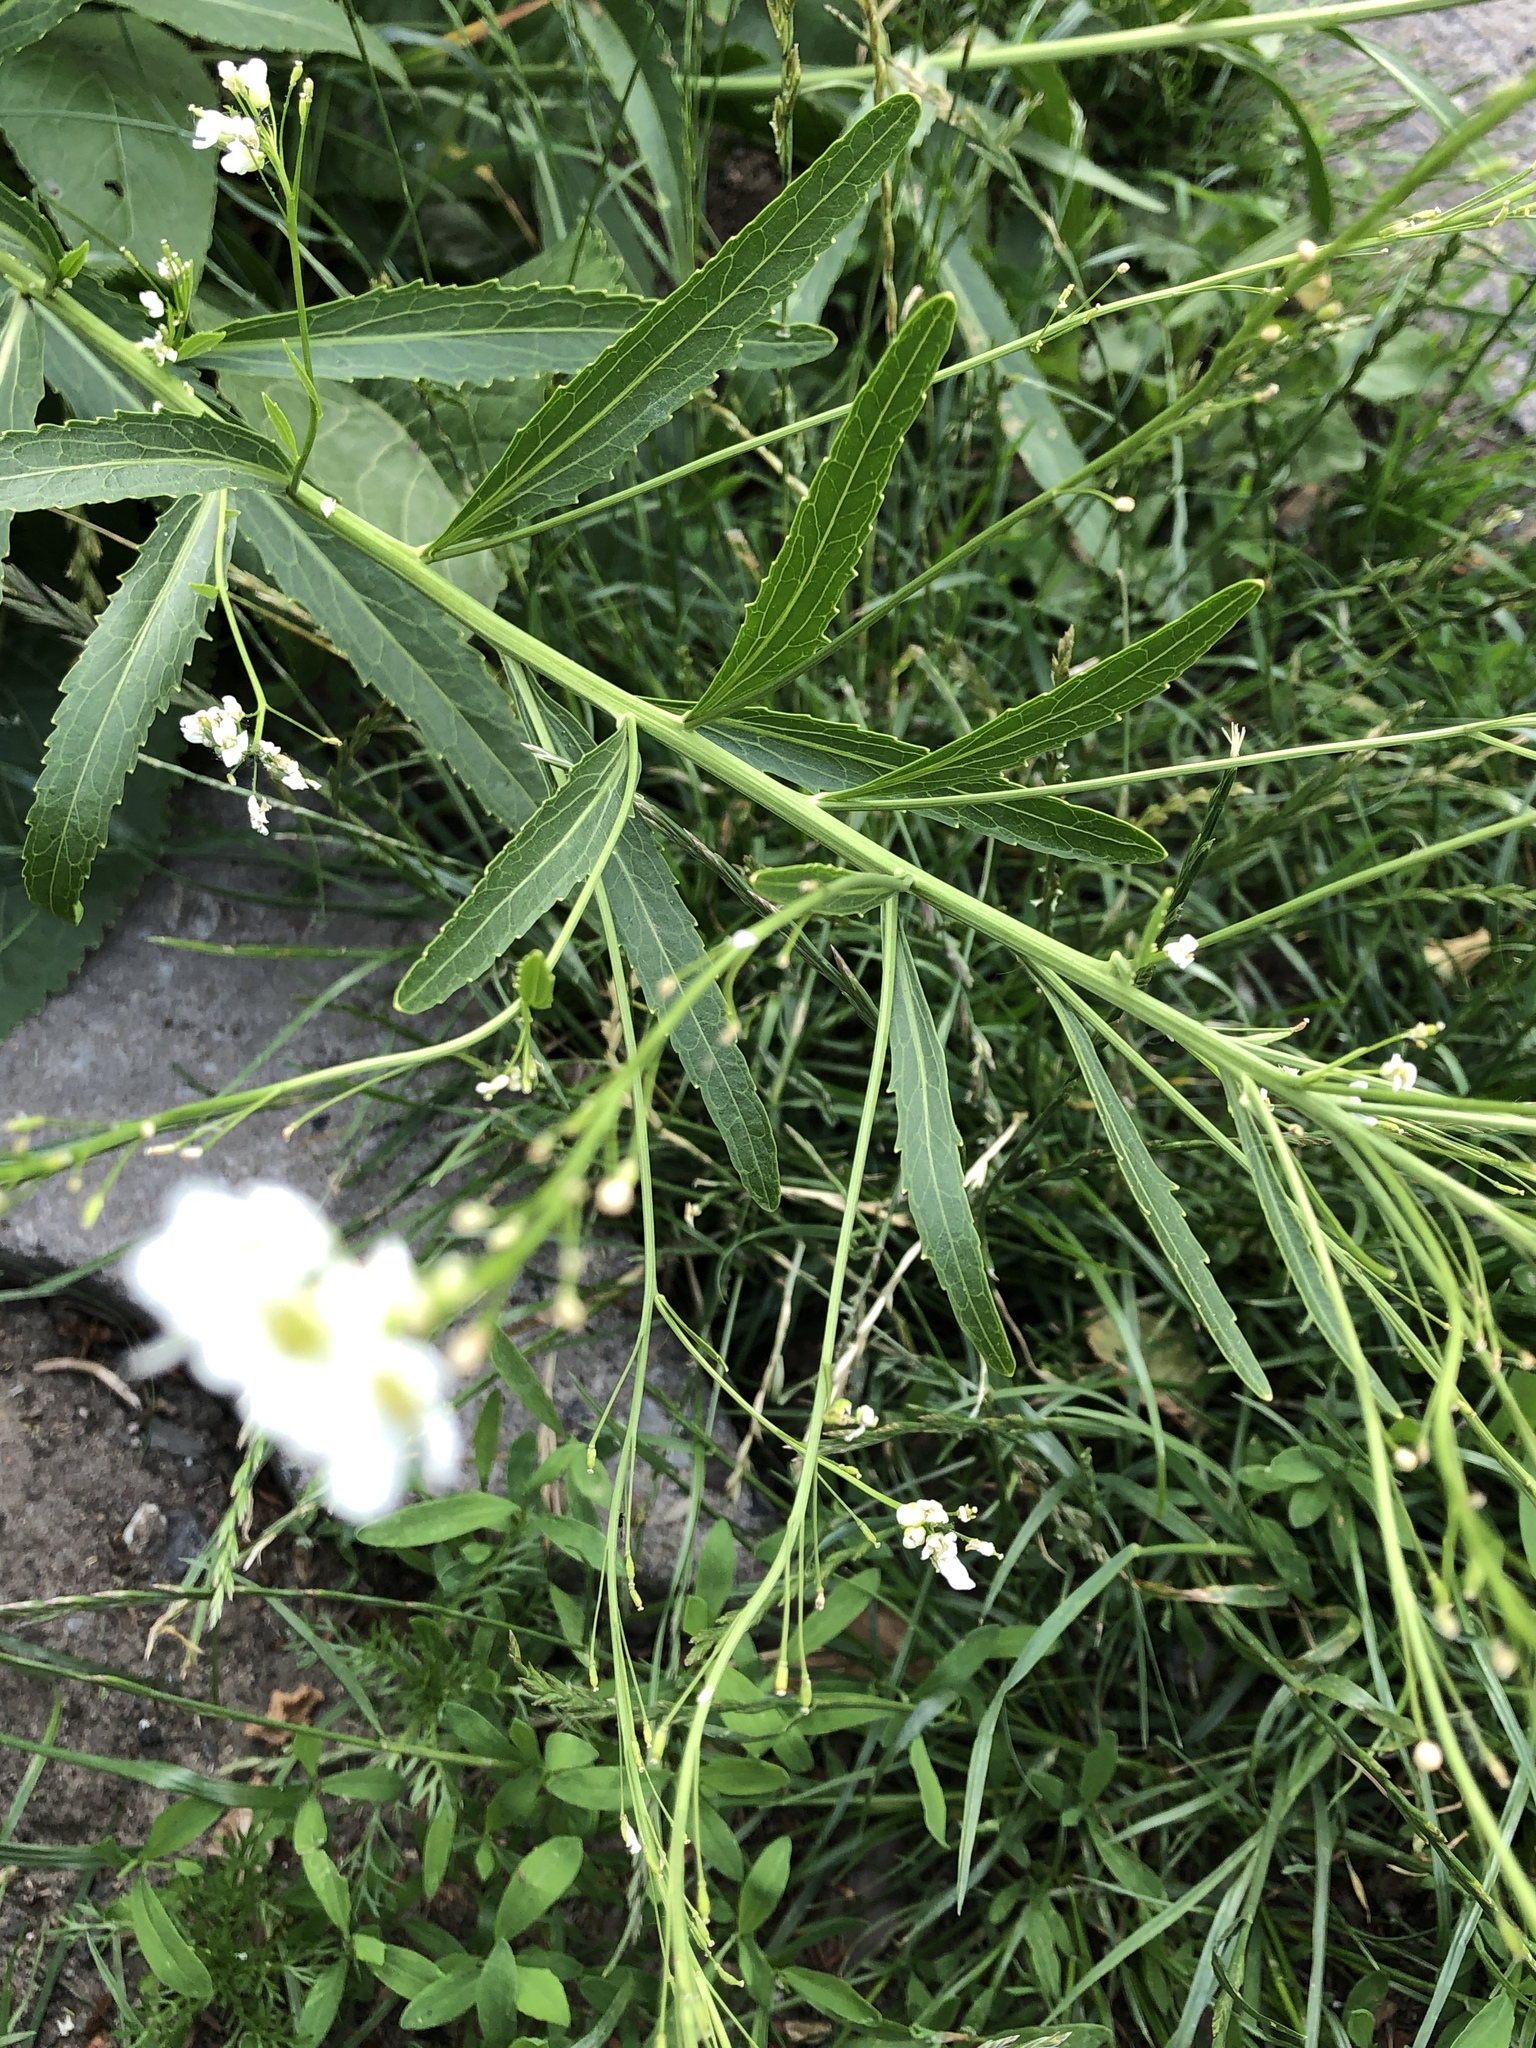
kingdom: Plantae
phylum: Tracheophyta
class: Magnoliopsida
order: Brassicales
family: Brassicaceae
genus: Armoracia
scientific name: Armoracia rusticana
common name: Horseradish
